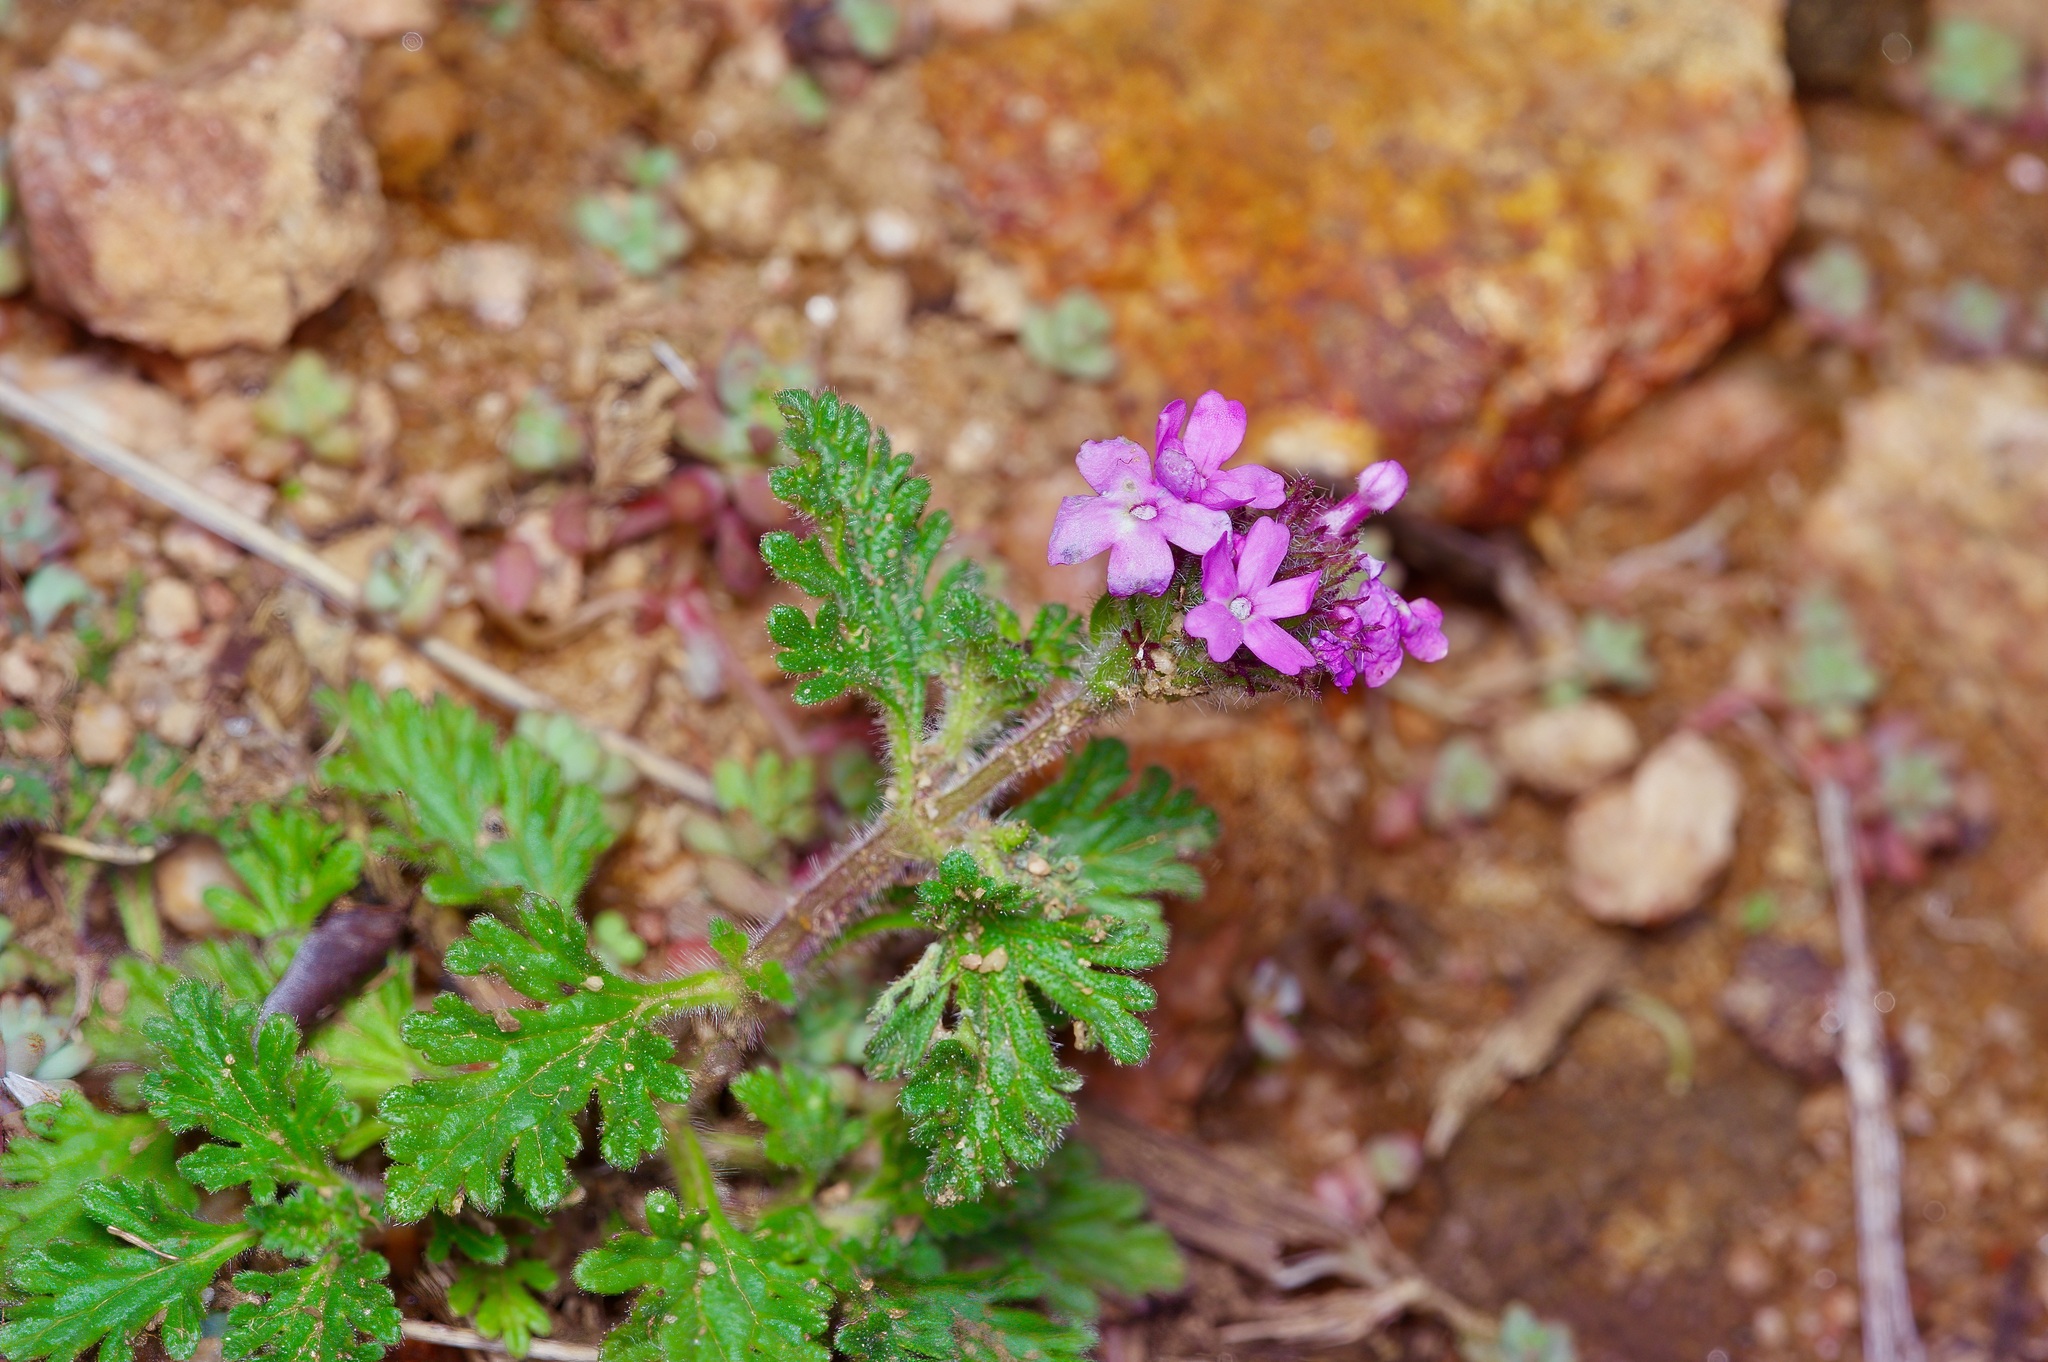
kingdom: Plantae
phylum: Tracheophyta
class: Magnoliopsida
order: Lamiales
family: Verbenaceae
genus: Verbena
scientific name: Verbena pumila
